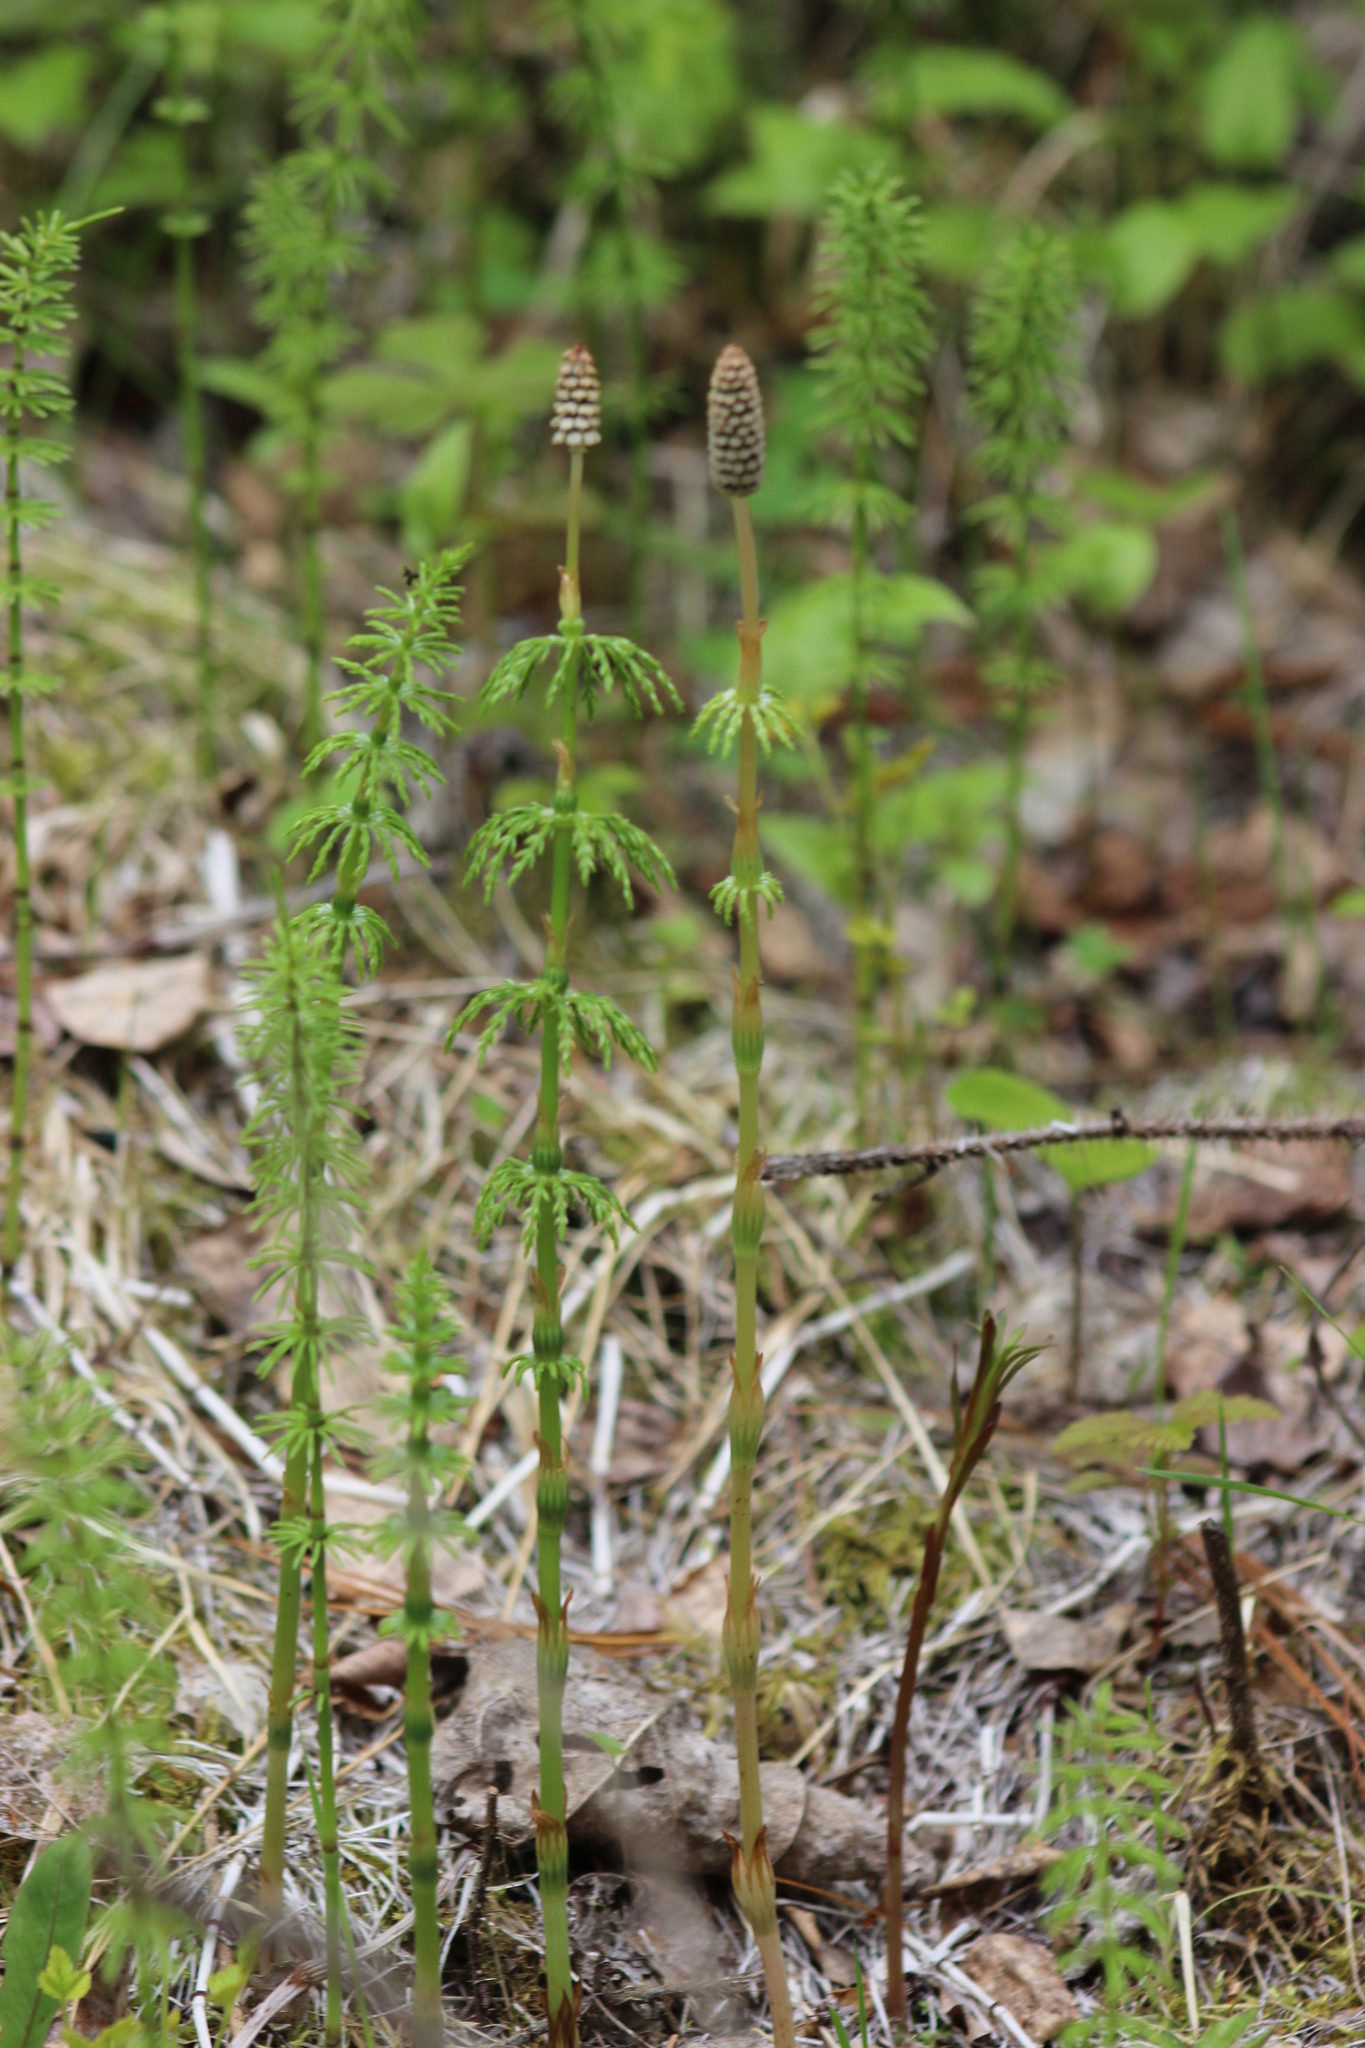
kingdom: Plantae
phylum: Tracheophyta
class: Polypodiopsida
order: Equisetales
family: Equisetaceae
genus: Equisetum
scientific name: Equisetum sylvaticum
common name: Wood horsetail
